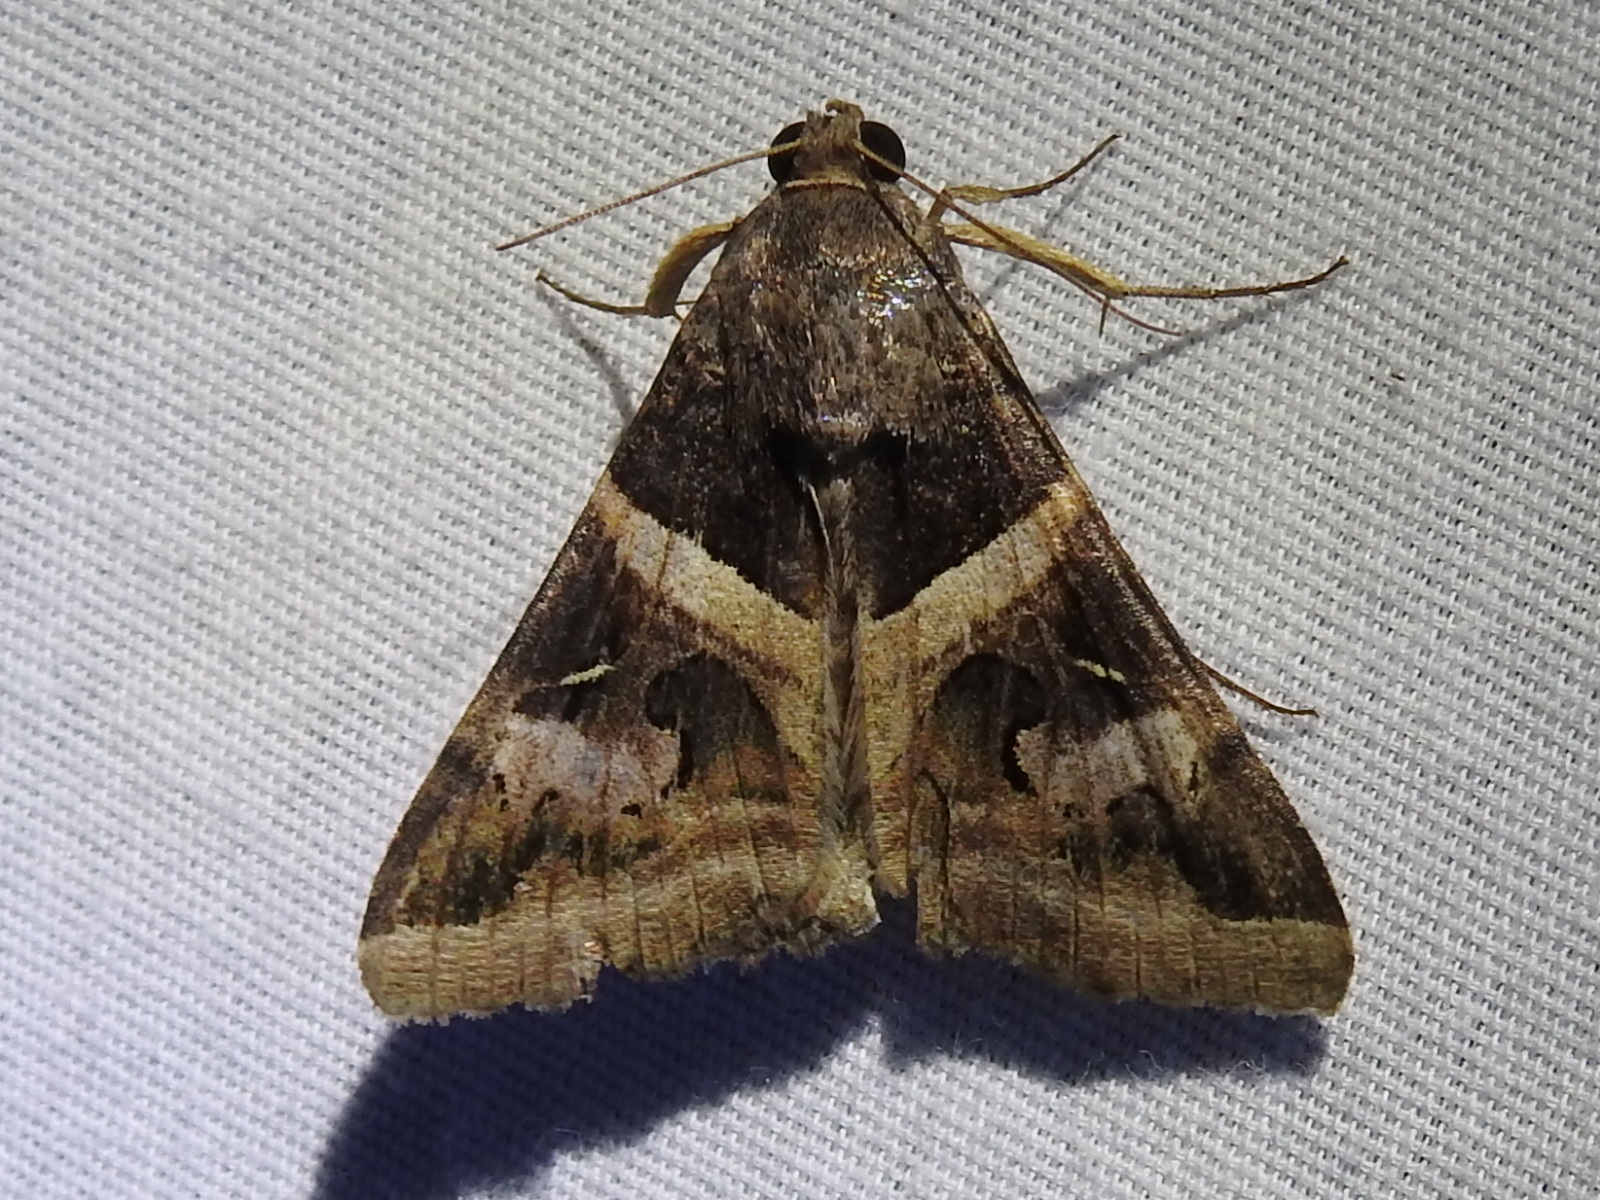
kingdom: Animalia
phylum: Arthropoda
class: Insecta
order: Lepidoptera
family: Erebidae
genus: Melipotis
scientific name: Melipotis indomita
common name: Moth
